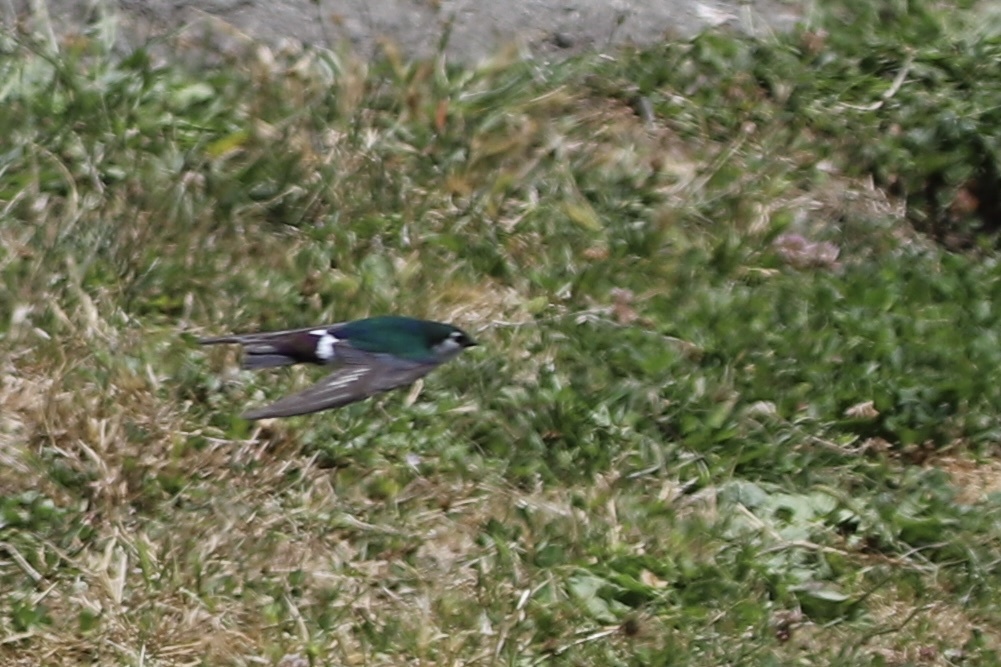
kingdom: Animalia
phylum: Chordata
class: Aves
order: Passeriformes
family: Hirundinidae
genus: Tachycineta
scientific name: Tachycineta thalassina
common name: Violet-green swallow
